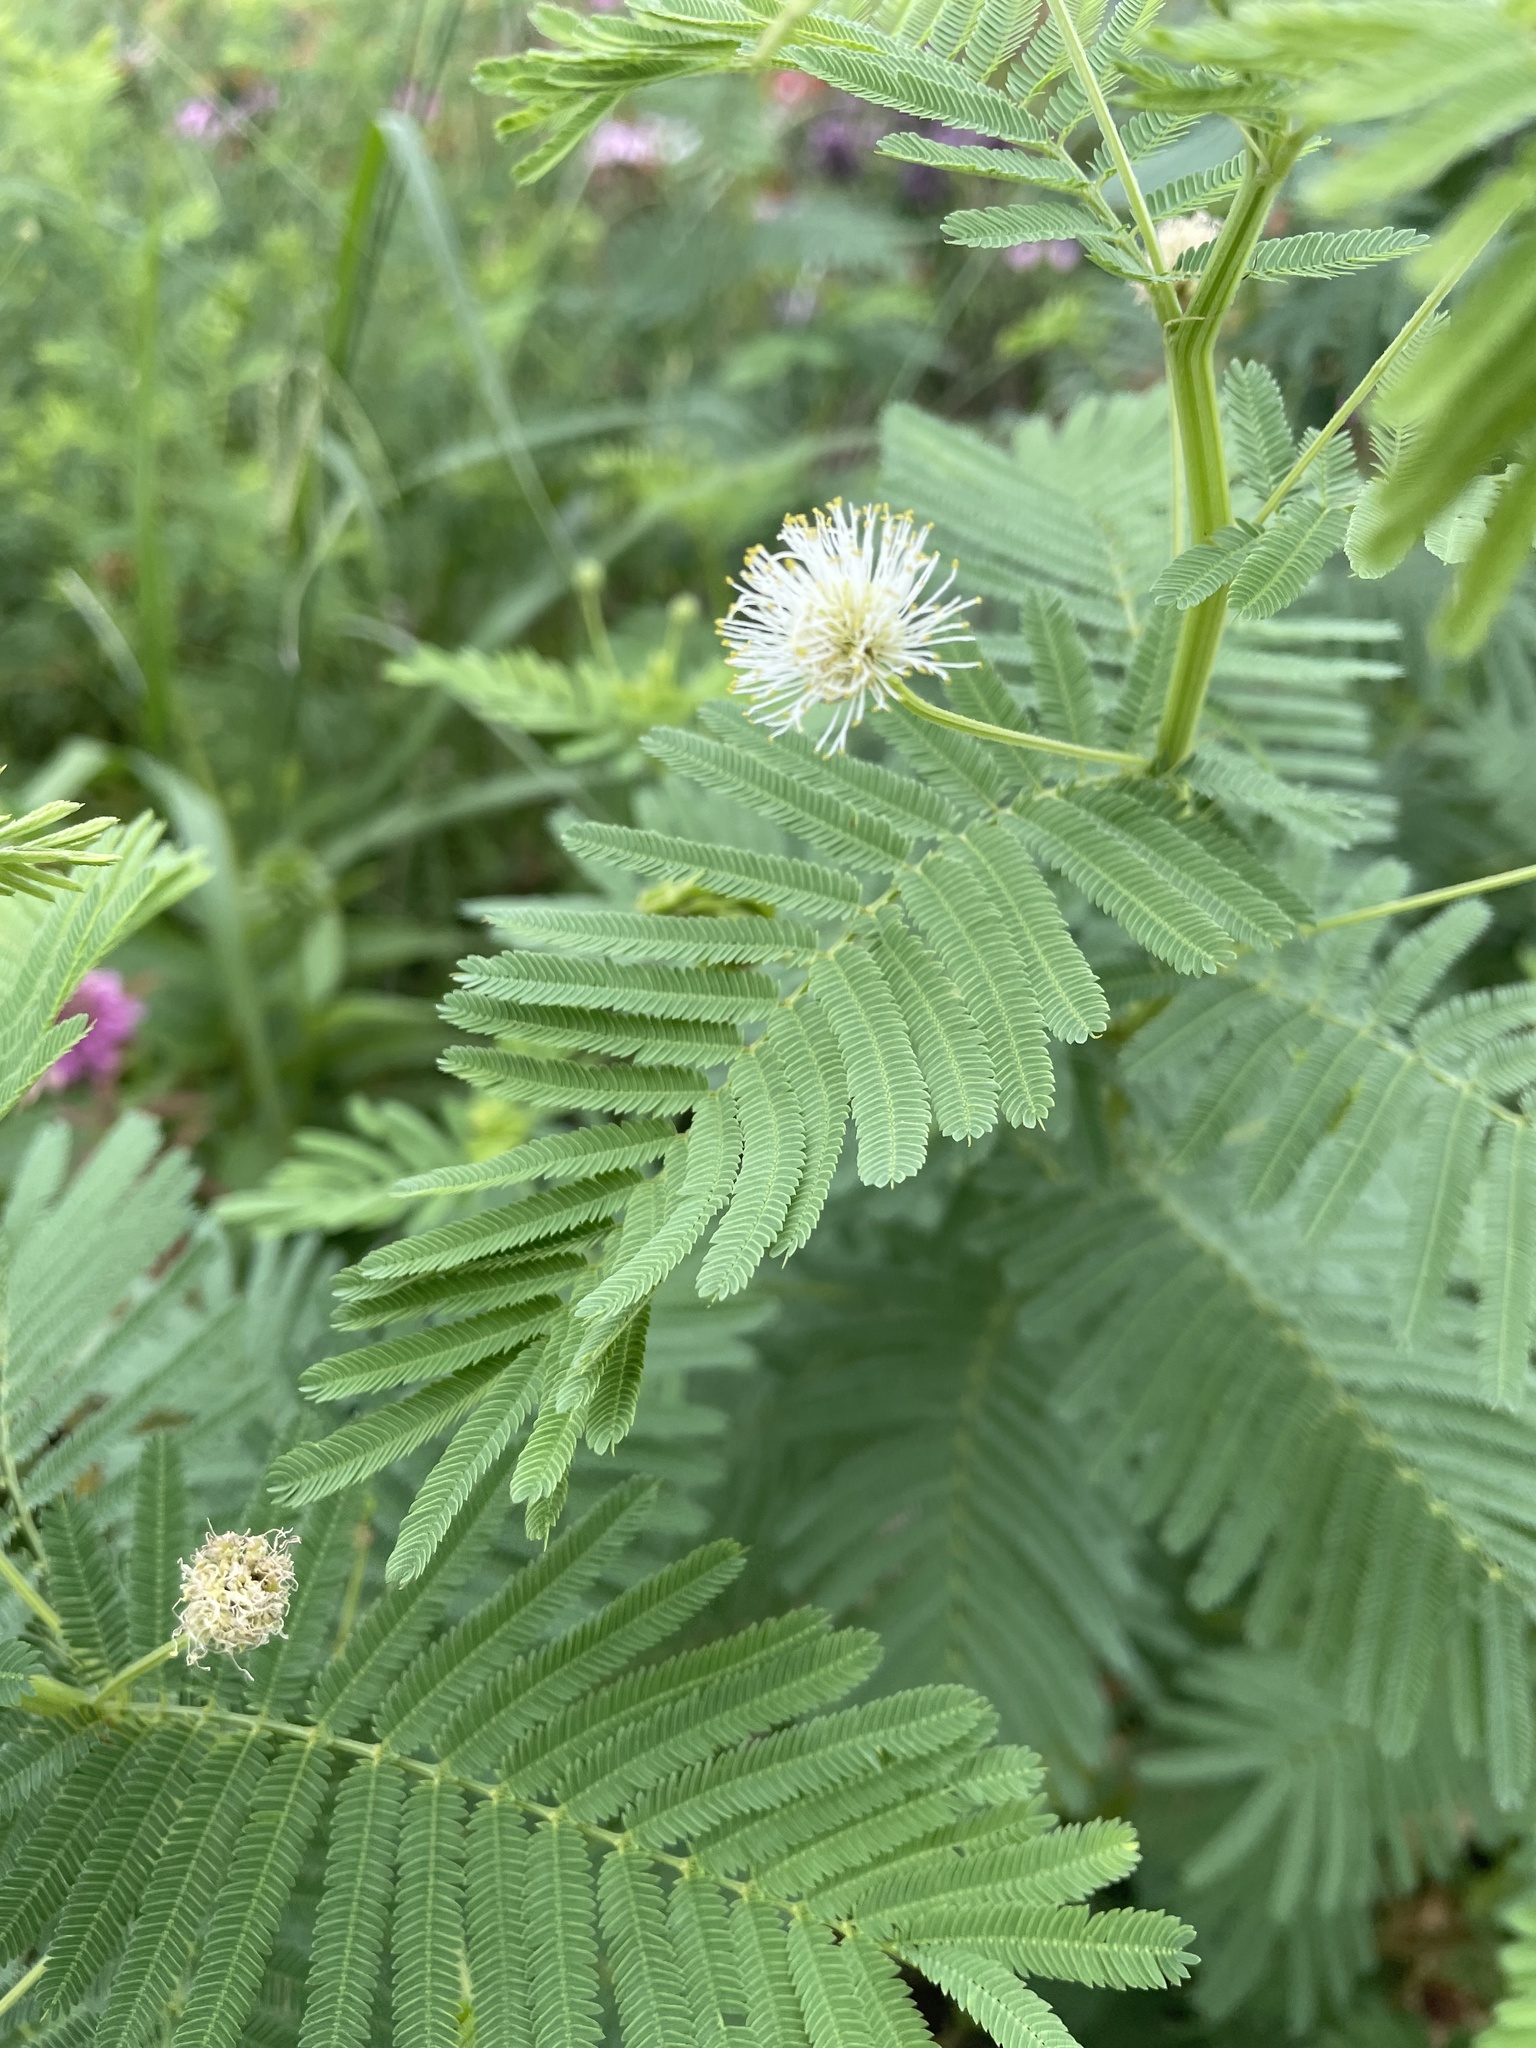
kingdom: Plantae
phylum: Tracheophyta
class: Magnoliopsida
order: Fabales
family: Fabaceae
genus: Desmanthus
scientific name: Desmanthus illinoensis
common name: Illinois bundle-flower
